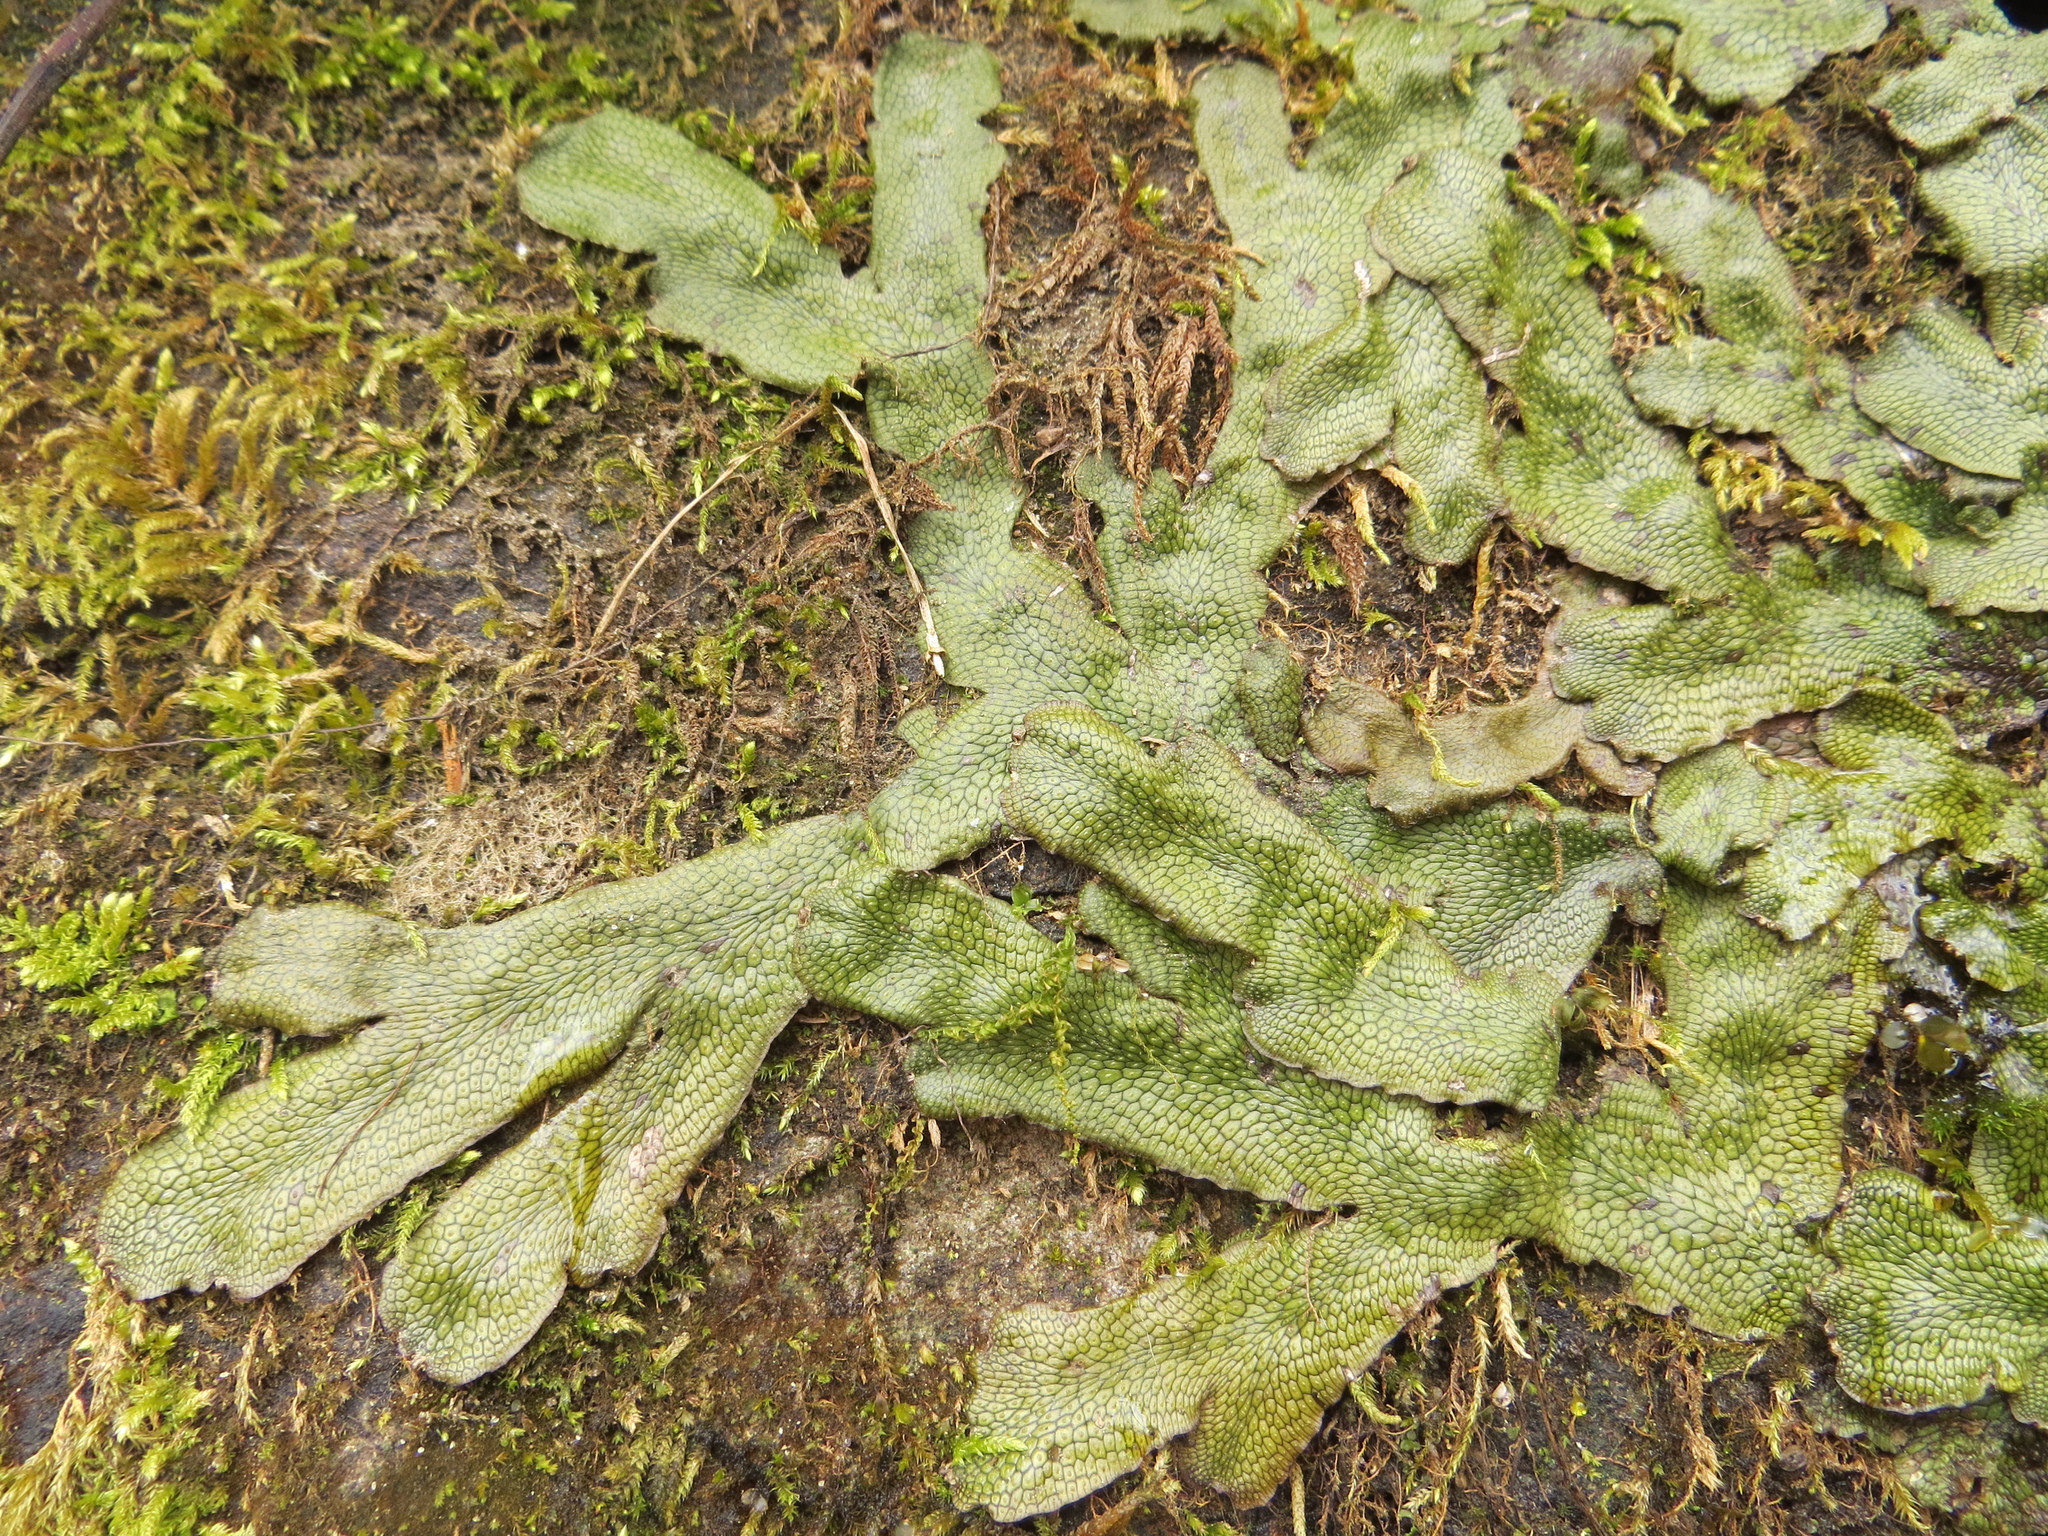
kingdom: Plantae
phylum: Marchantiophyta
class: Marchantiopsida
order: Marchantiales
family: Conocephalaceae
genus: Conocephalum
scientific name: Conocephalum salebrosum
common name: Cat-tongue liverwort
